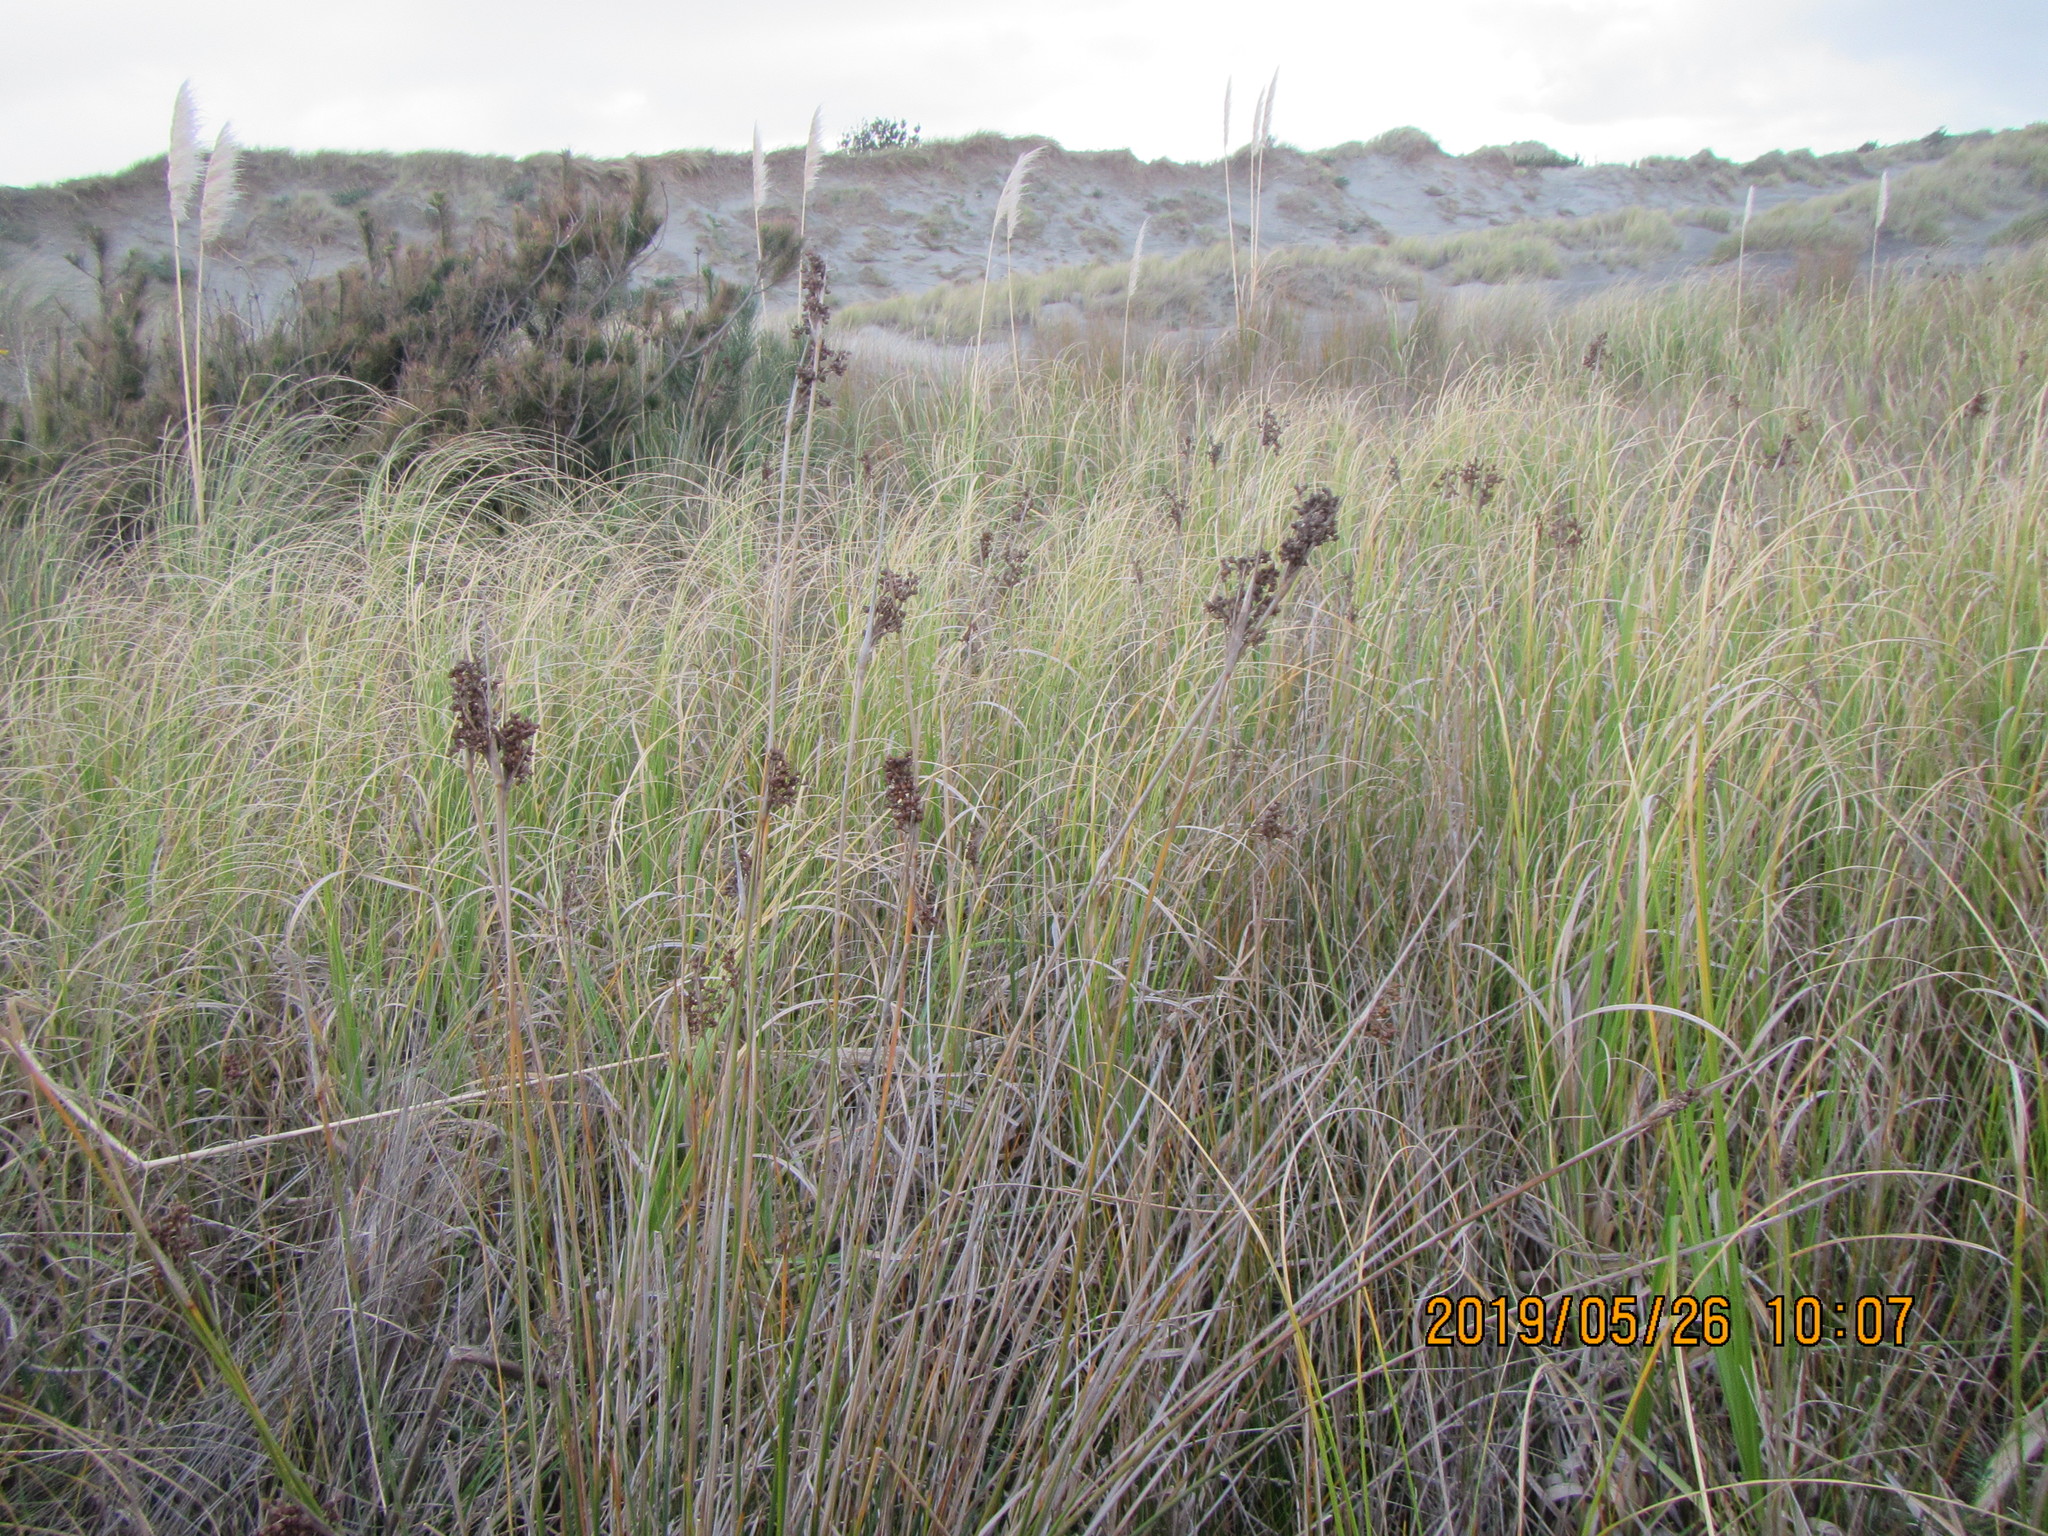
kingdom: Plantae
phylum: Tracheophyta
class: Liliopsida
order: Poales
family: Juncaceae
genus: Juncus
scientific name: Juncus acutus
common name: Sharp rush
